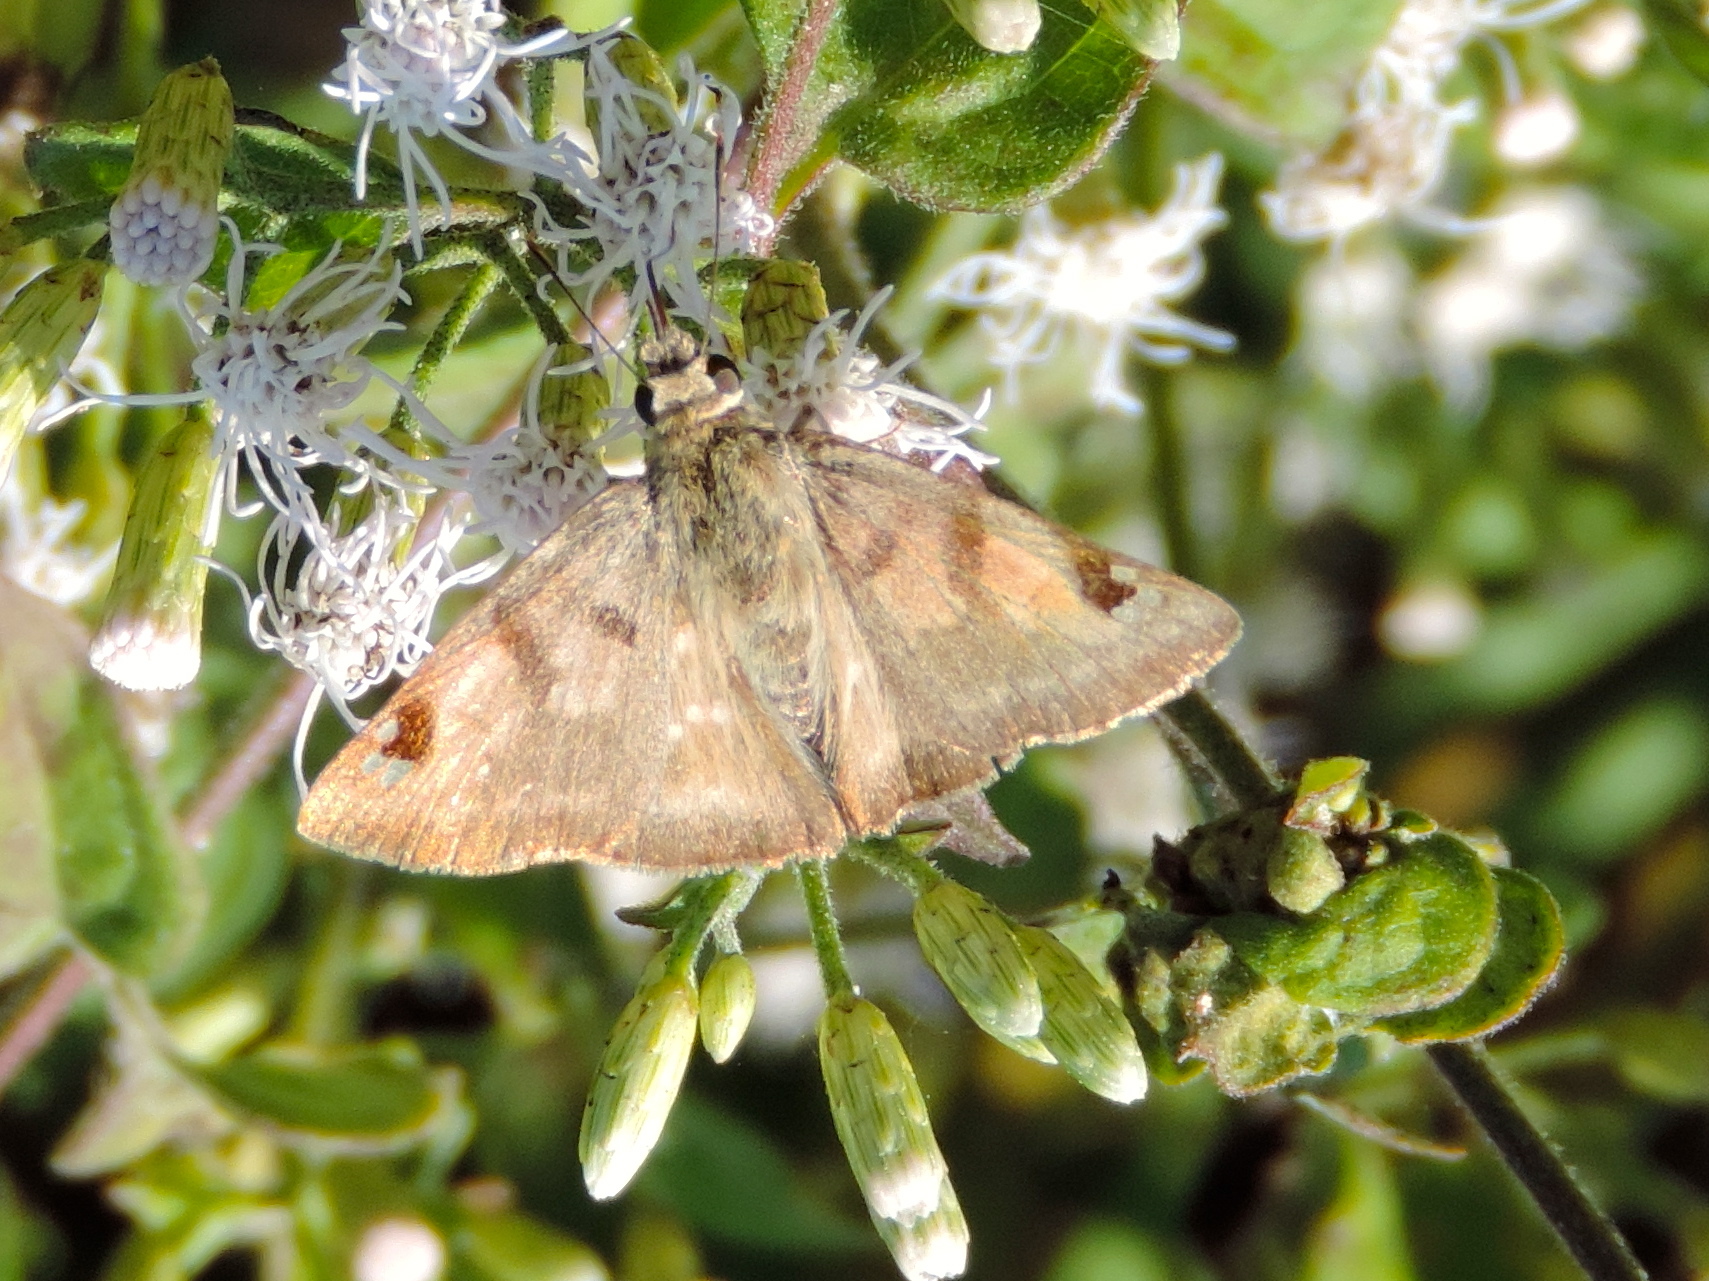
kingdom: Animalia
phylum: Arthropoda
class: Insecta
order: Lepidoptera
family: Hesperiidae
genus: Arteurotia
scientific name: Arteurotia tractipennis
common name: Starred skipper
